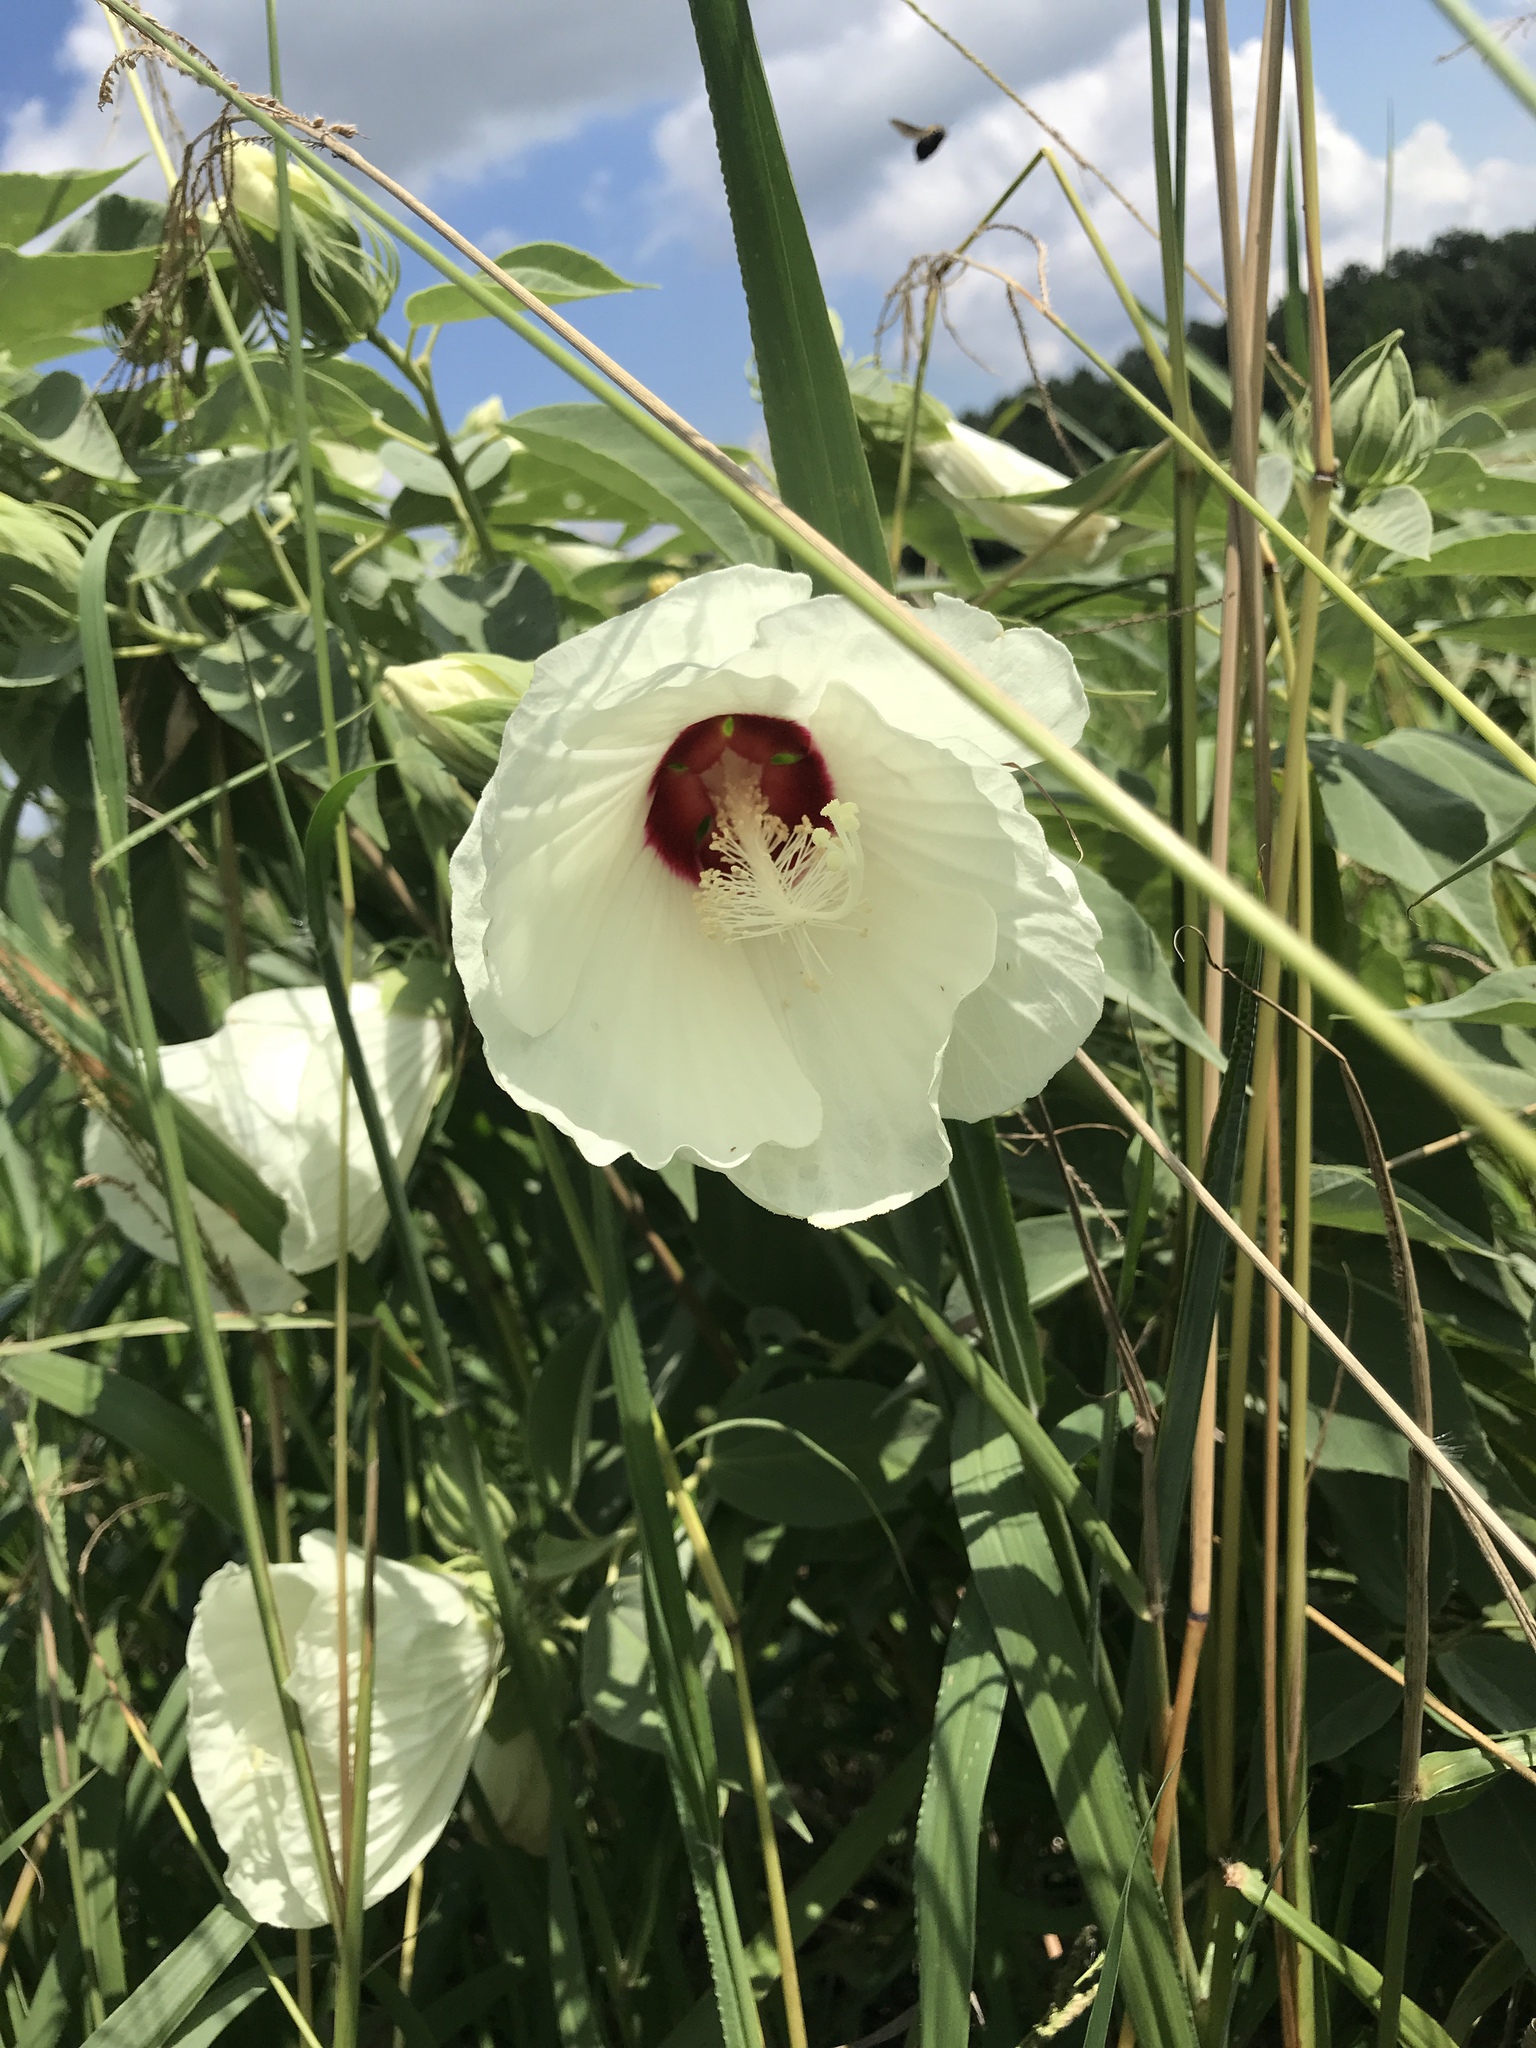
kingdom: Plantae
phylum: Tracheophyta
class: Magnoliopsida
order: Malvales
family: Malvaceae
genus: Hibiscus
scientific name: Hibiscus moscheutos
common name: Common rose-mallow
